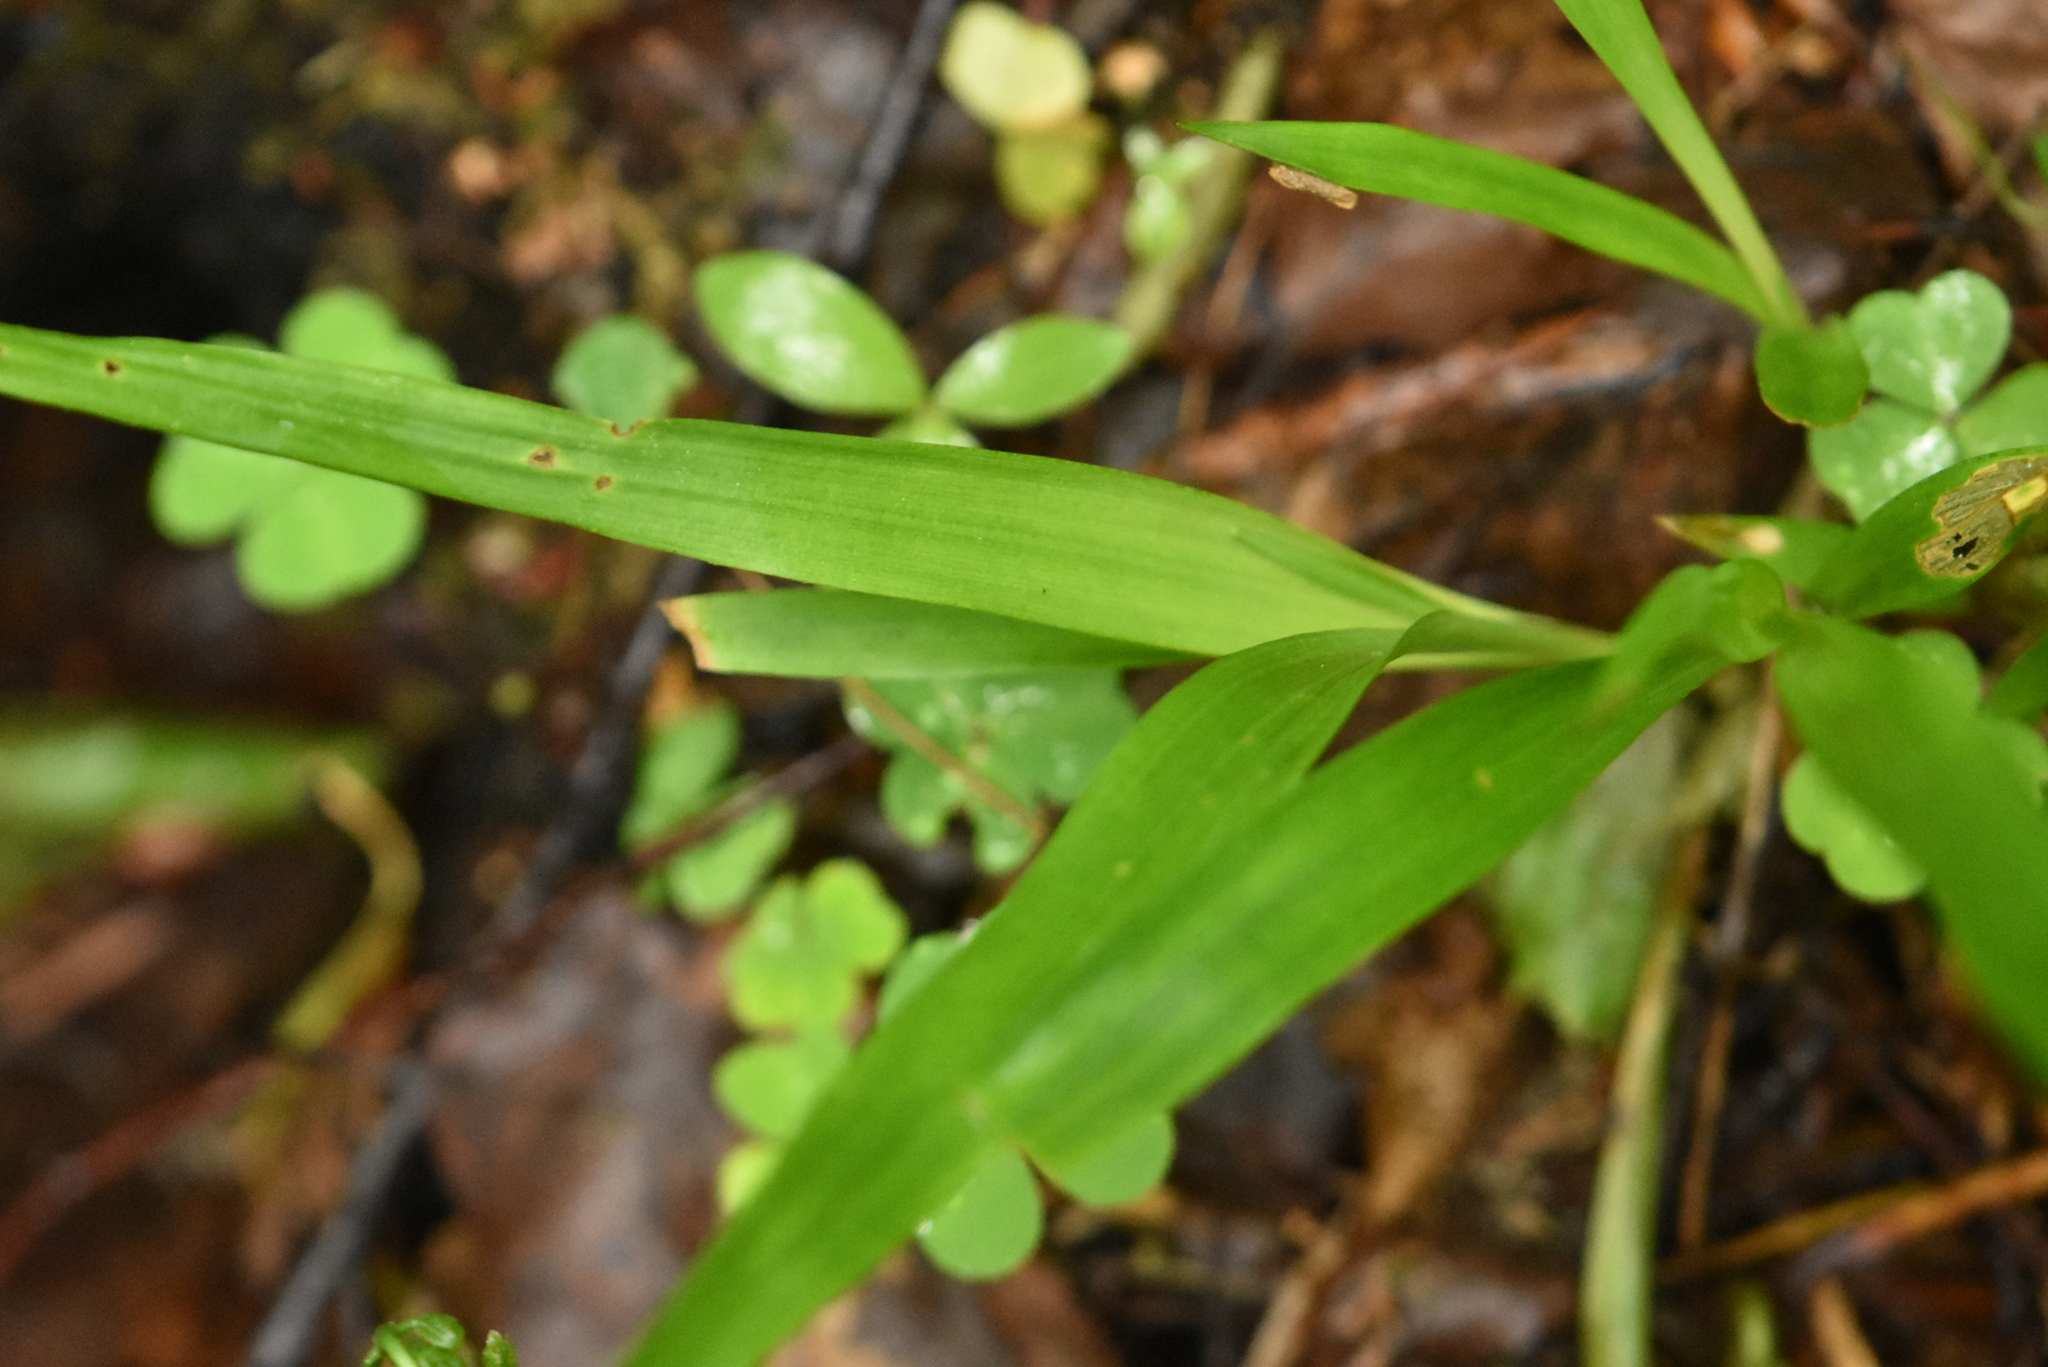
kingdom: Plantae
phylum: Tracheophyta
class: Liliopsida
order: Poales
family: Juncaceae
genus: Luzula
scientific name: Luzula pilosa
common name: Hairy wood-rush
